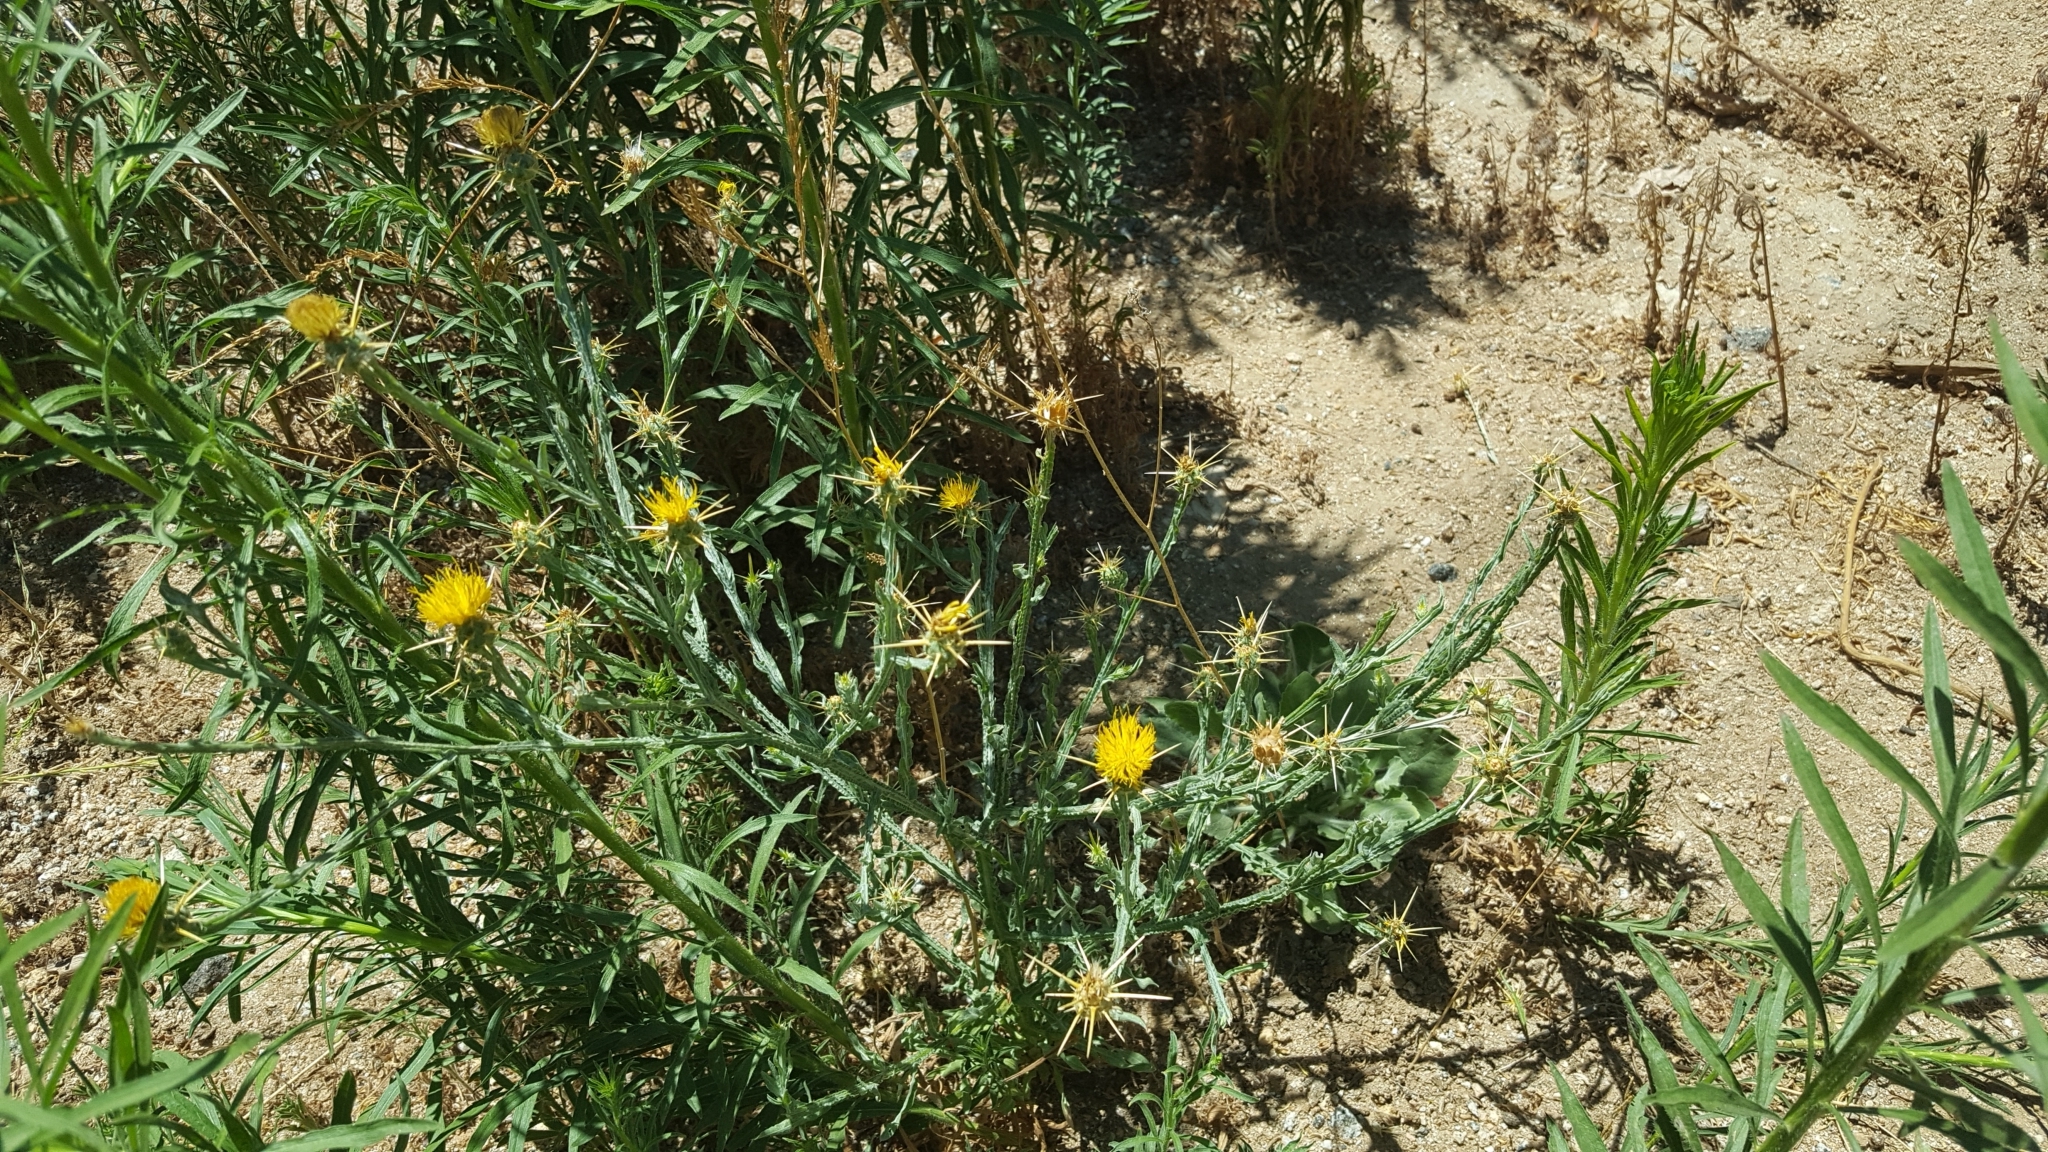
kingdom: Plantae
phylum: Tracheophyta
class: Magnoliopsida
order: Asterales
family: Asteraceae
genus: Centaurea
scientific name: Centaurea solstitialis
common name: Yellow star-thistle
